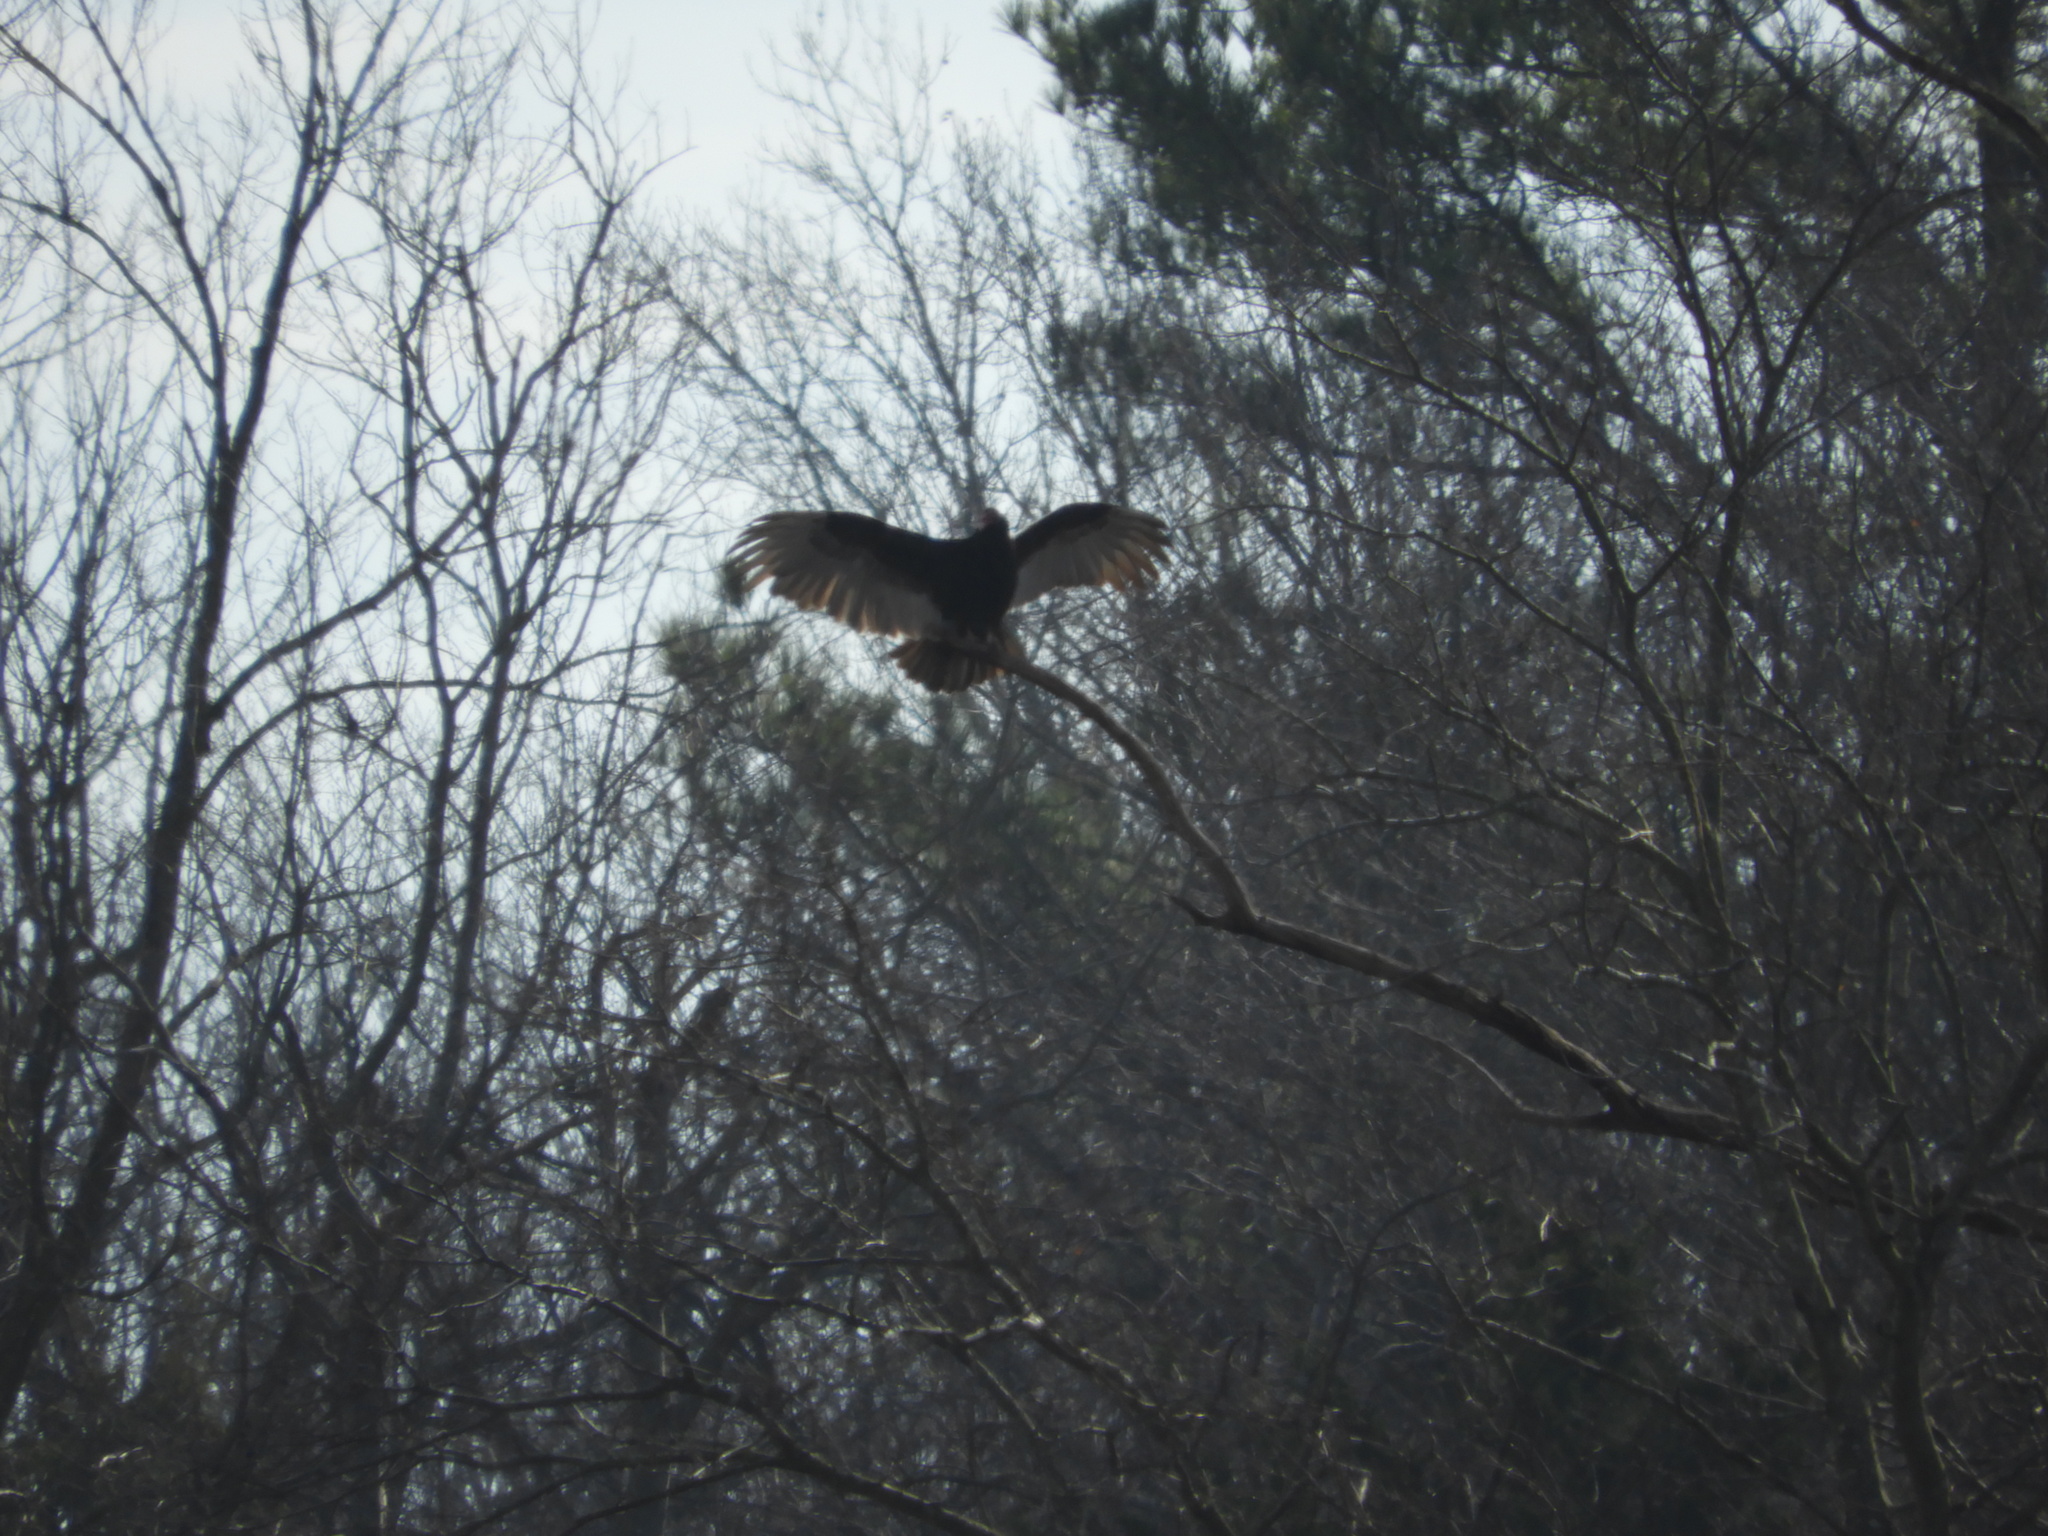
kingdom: Animalia
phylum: Chordata
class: Aves
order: Accipitriformes
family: Cathartidae
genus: Cathartes
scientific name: Cathartes aura
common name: Turkey vulture
